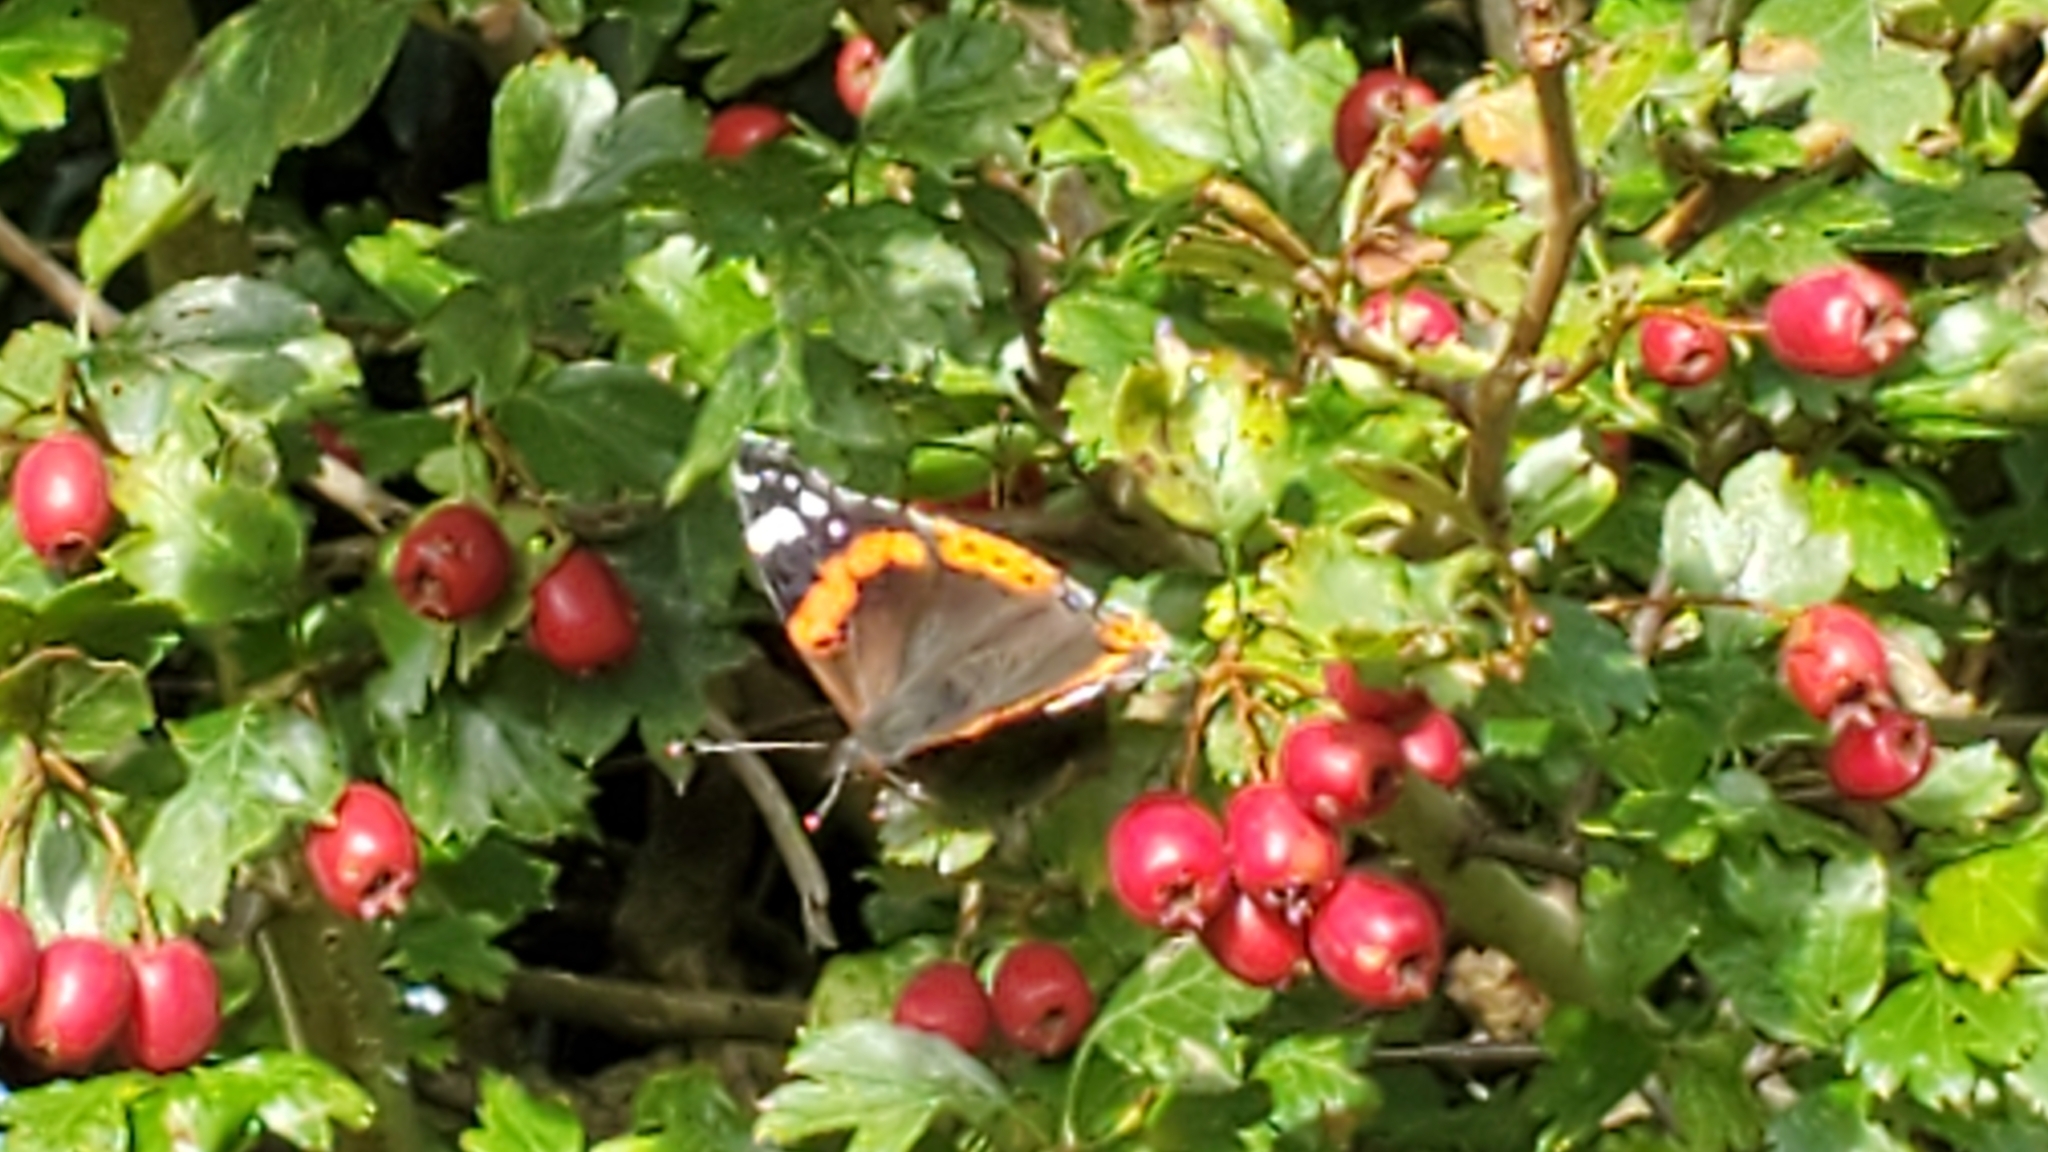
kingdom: Animalia
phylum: Arthropoda
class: Insecta
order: Lepidoptera
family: Nymphalidae
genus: Vanessa
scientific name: Vanessa atalanta
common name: Red admiral
